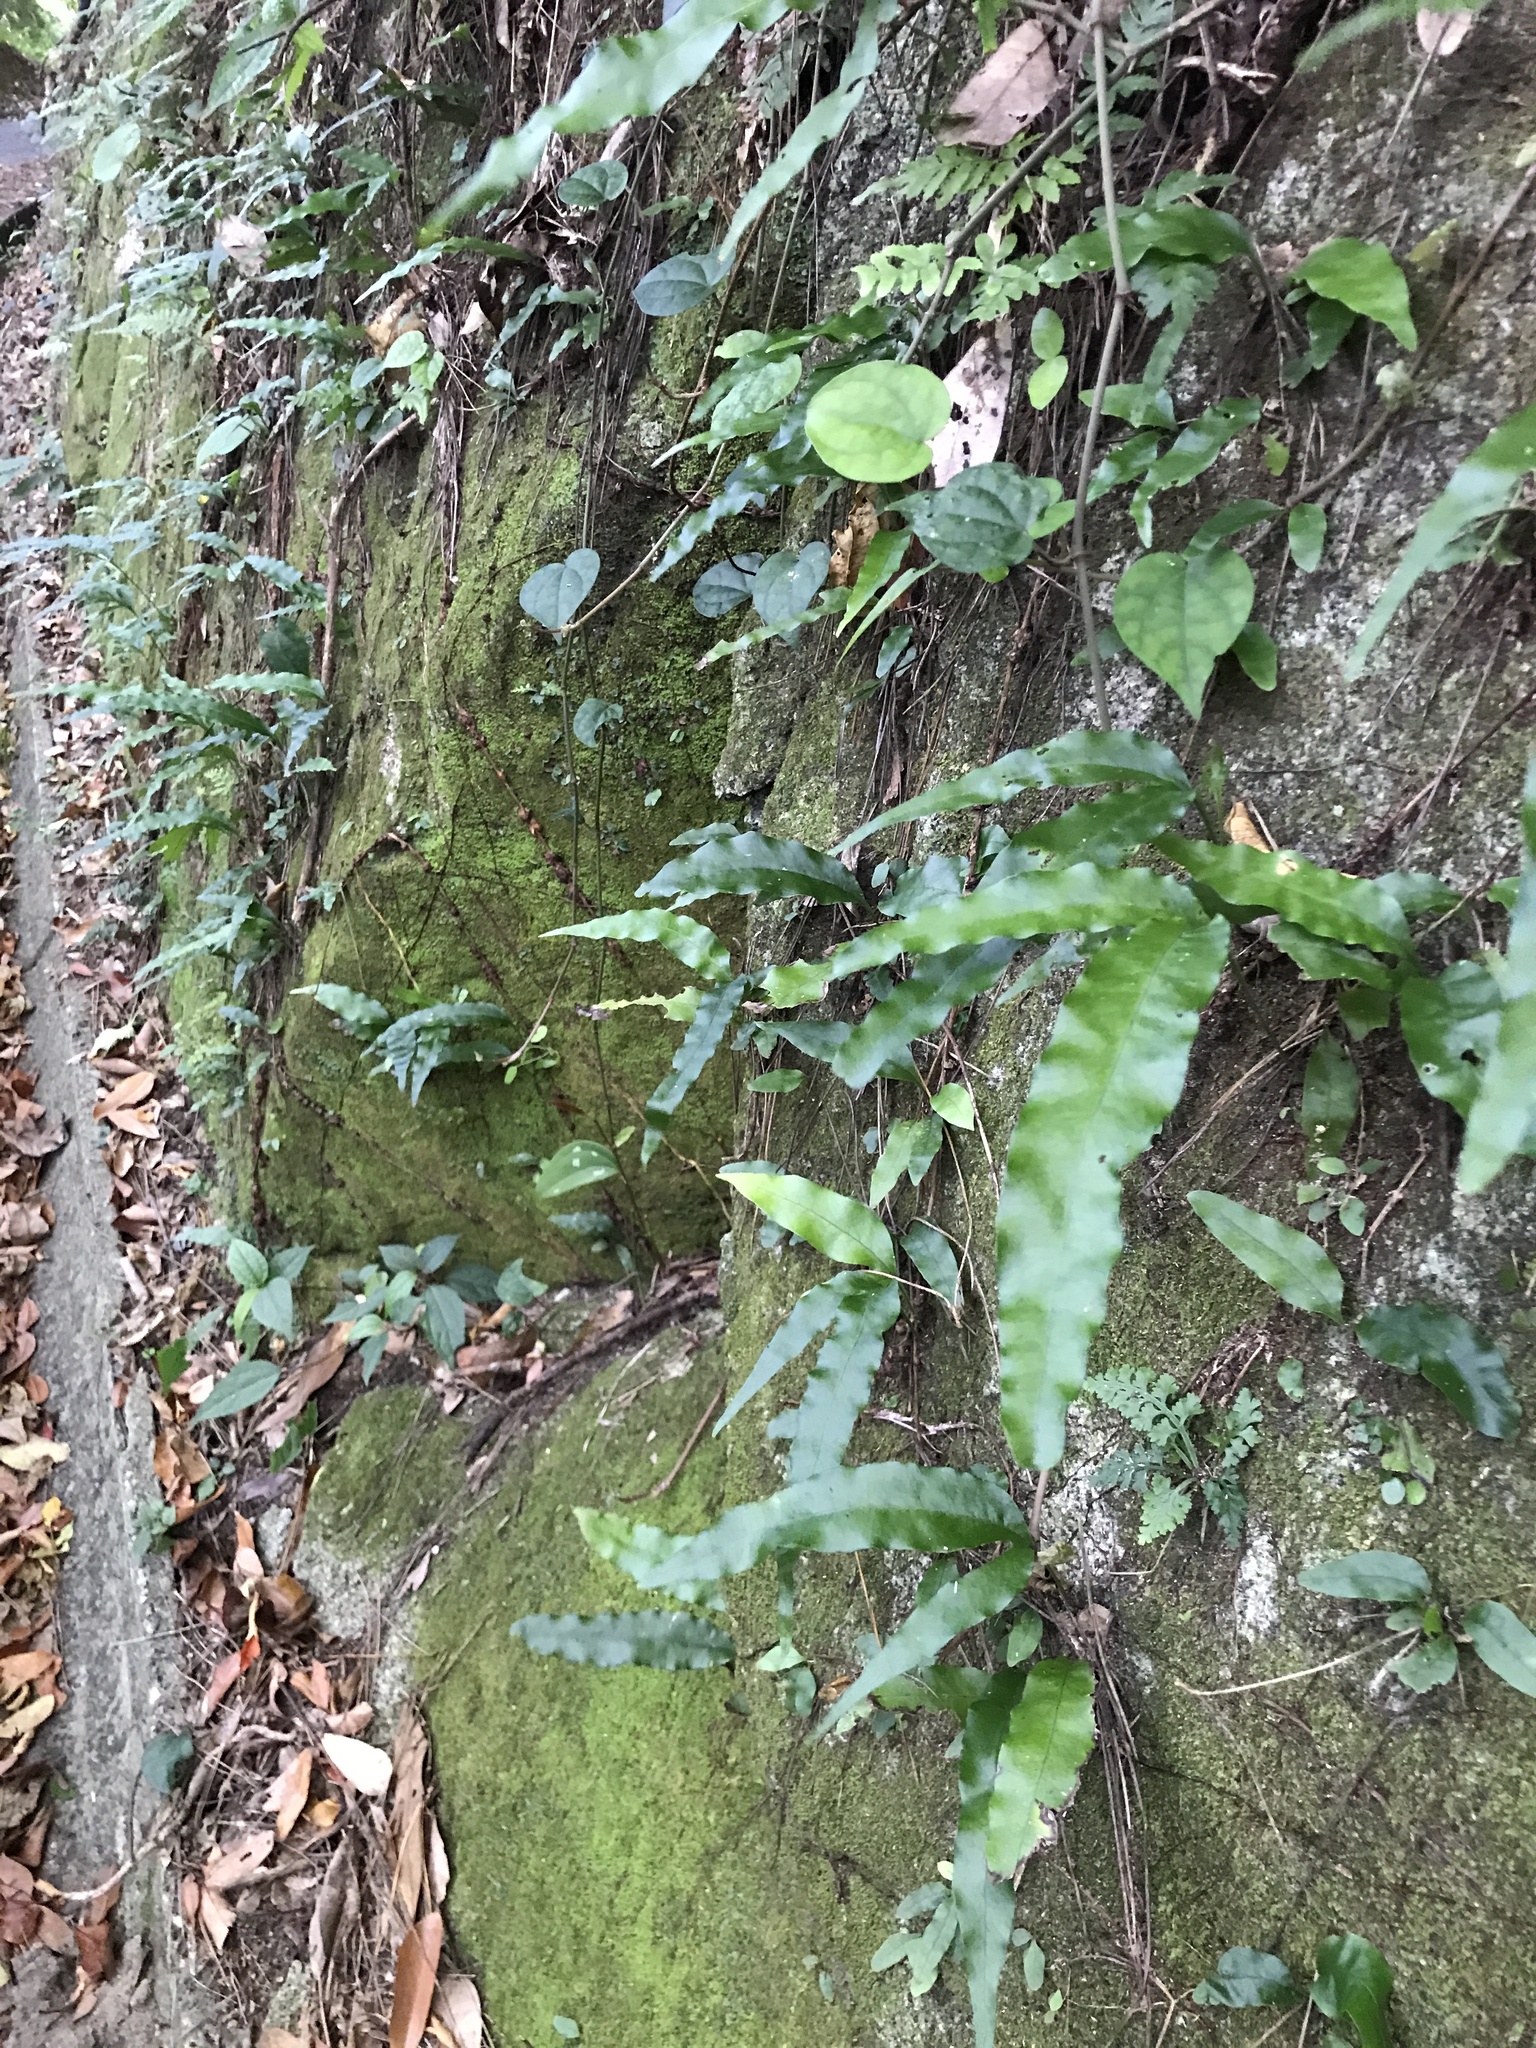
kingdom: Plantae
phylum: Tracheophyta
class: Polypodiopsida
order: Polypodiales
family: Polypodiaceae
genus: Leptochilus
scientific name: Leptochilus ellipticus
